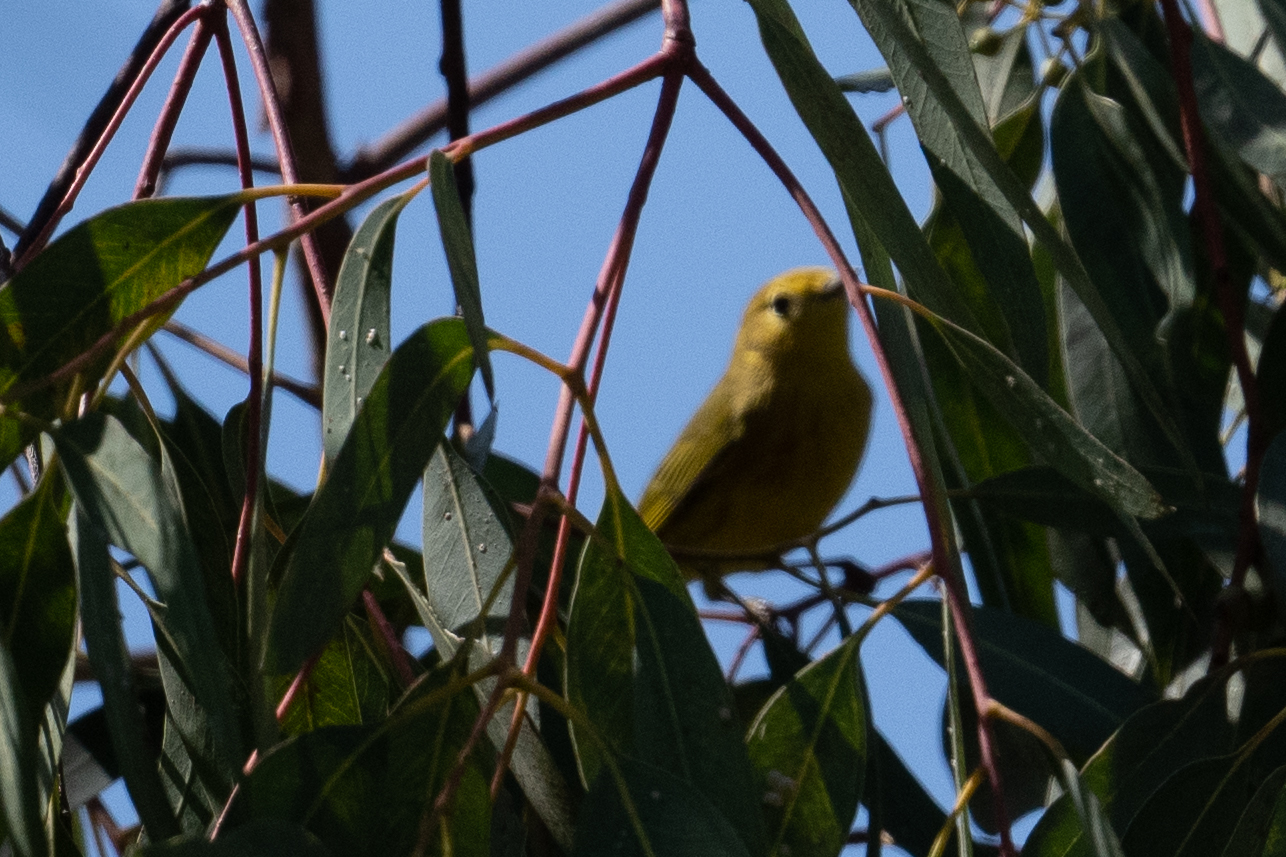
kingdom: Animalia
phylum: Chordata
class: Aves
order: Passeriformes
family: Parulidae
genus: Setophaga
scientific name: Setophaga petechia
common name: Yellow warbler
